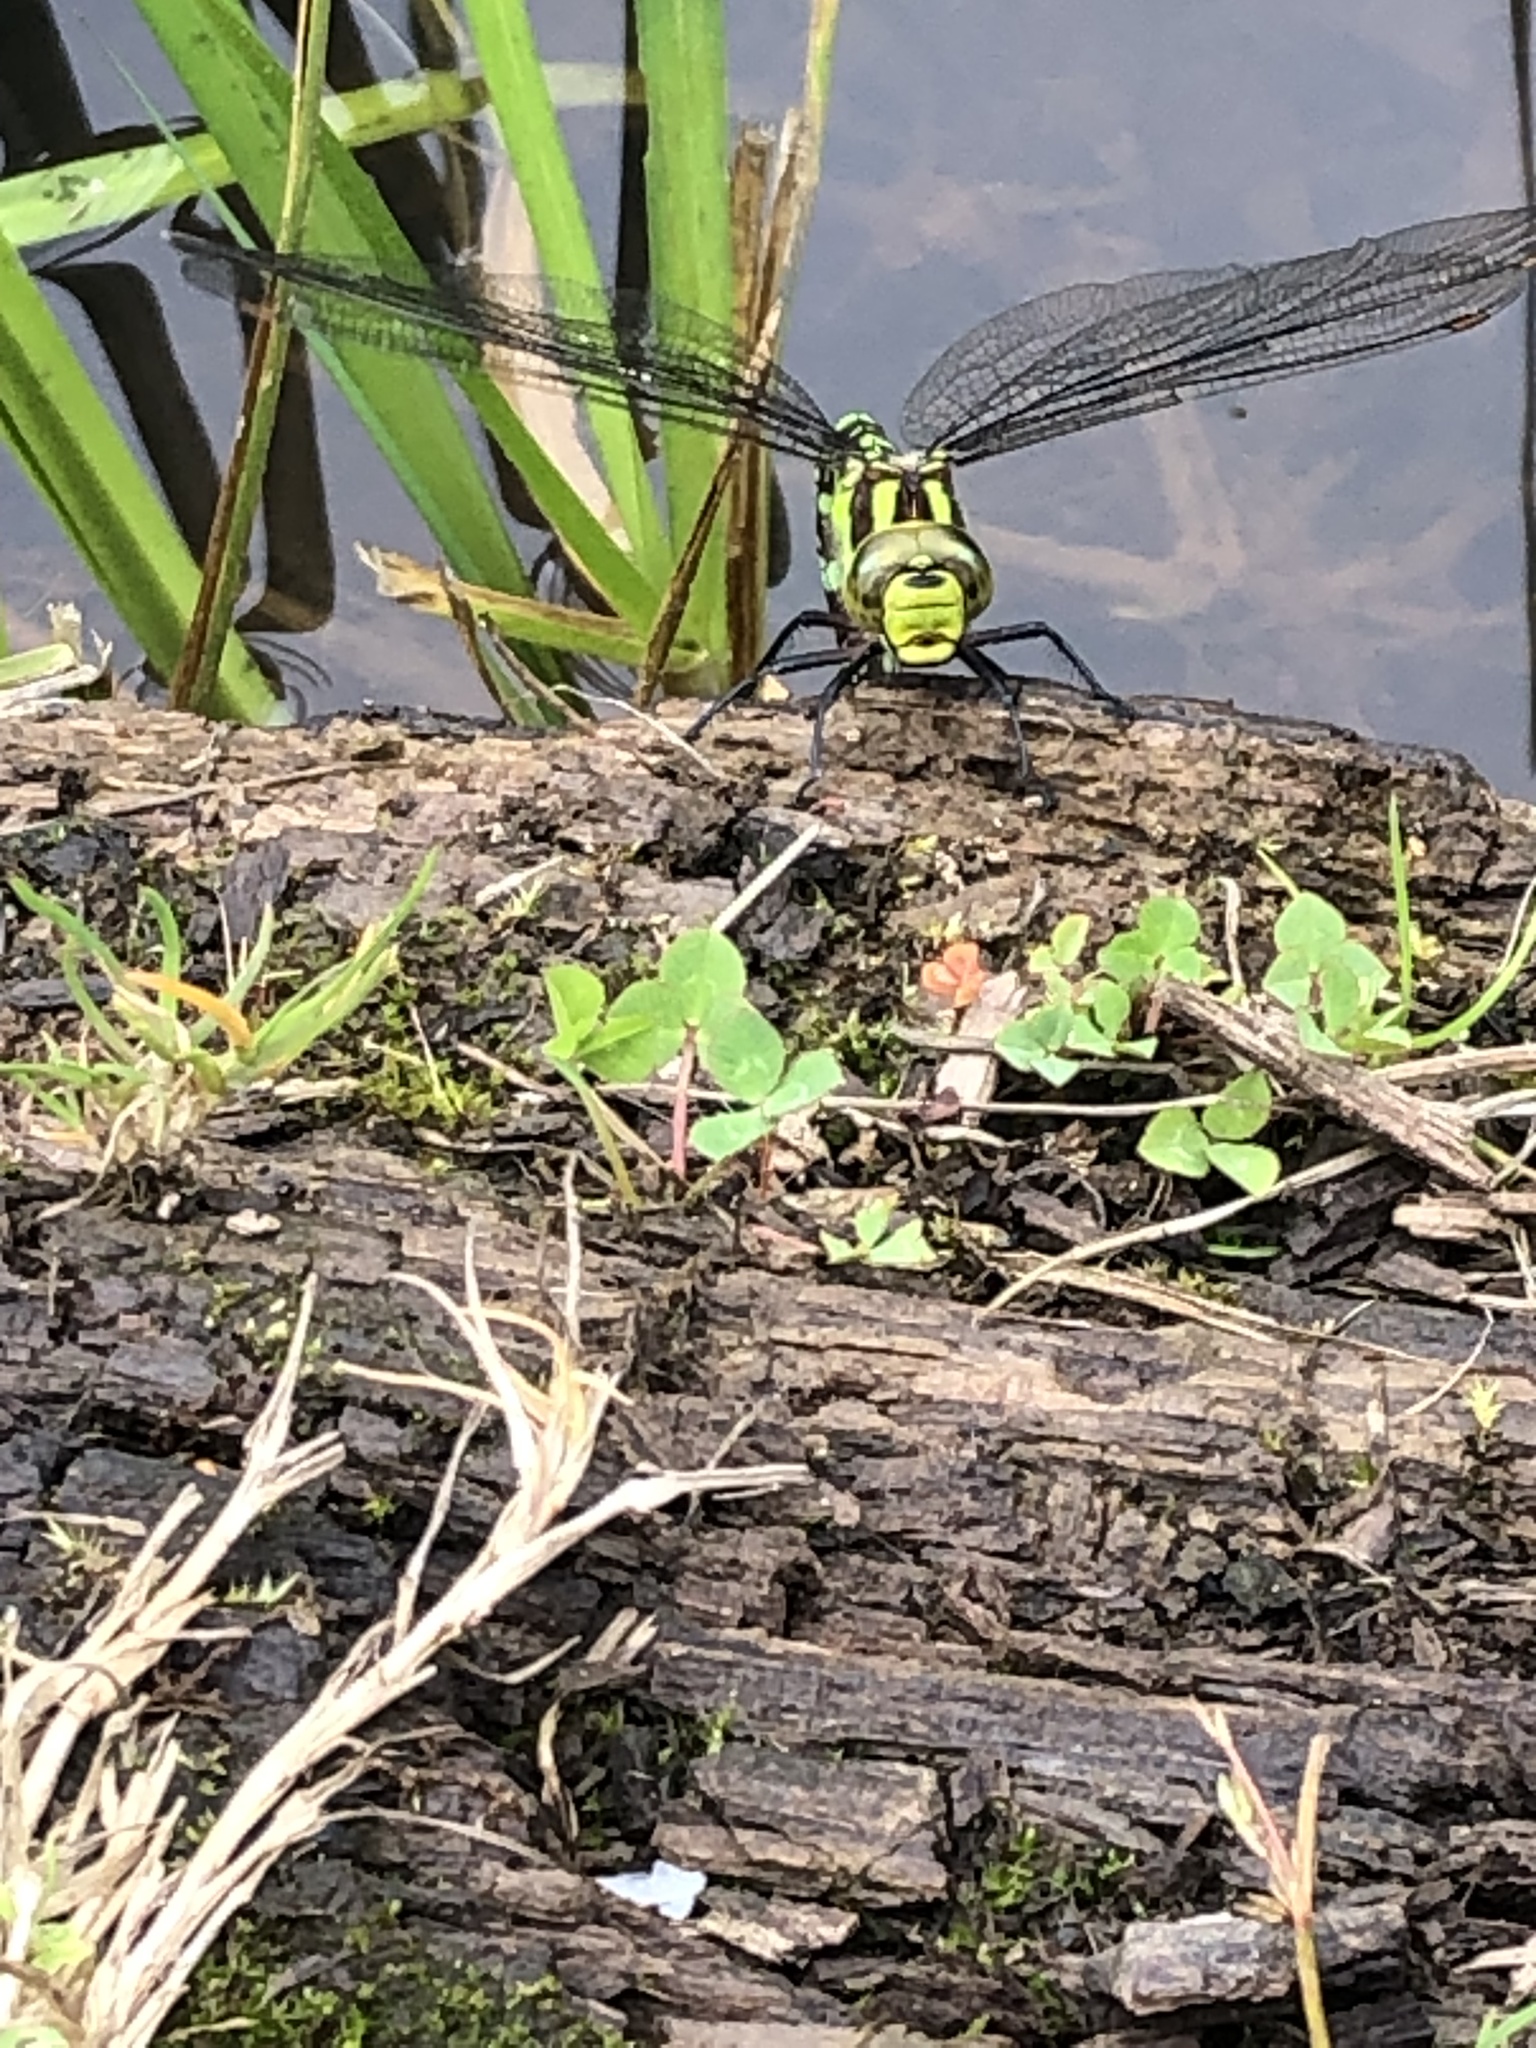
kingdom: Animalia
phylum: Arthropoda
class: Insecta
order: Odonata
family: Aeshnidae
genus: Aeshna
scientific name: Aeshna cyanea
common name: Southern hawker
